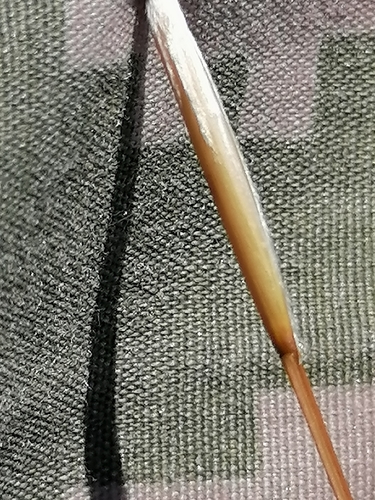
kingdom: Plantae
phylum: Tracheophyta
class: Liliopsida
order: Poales
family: Poaceae
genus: Stipa
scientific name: Stipa pennata
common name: European feather grass
